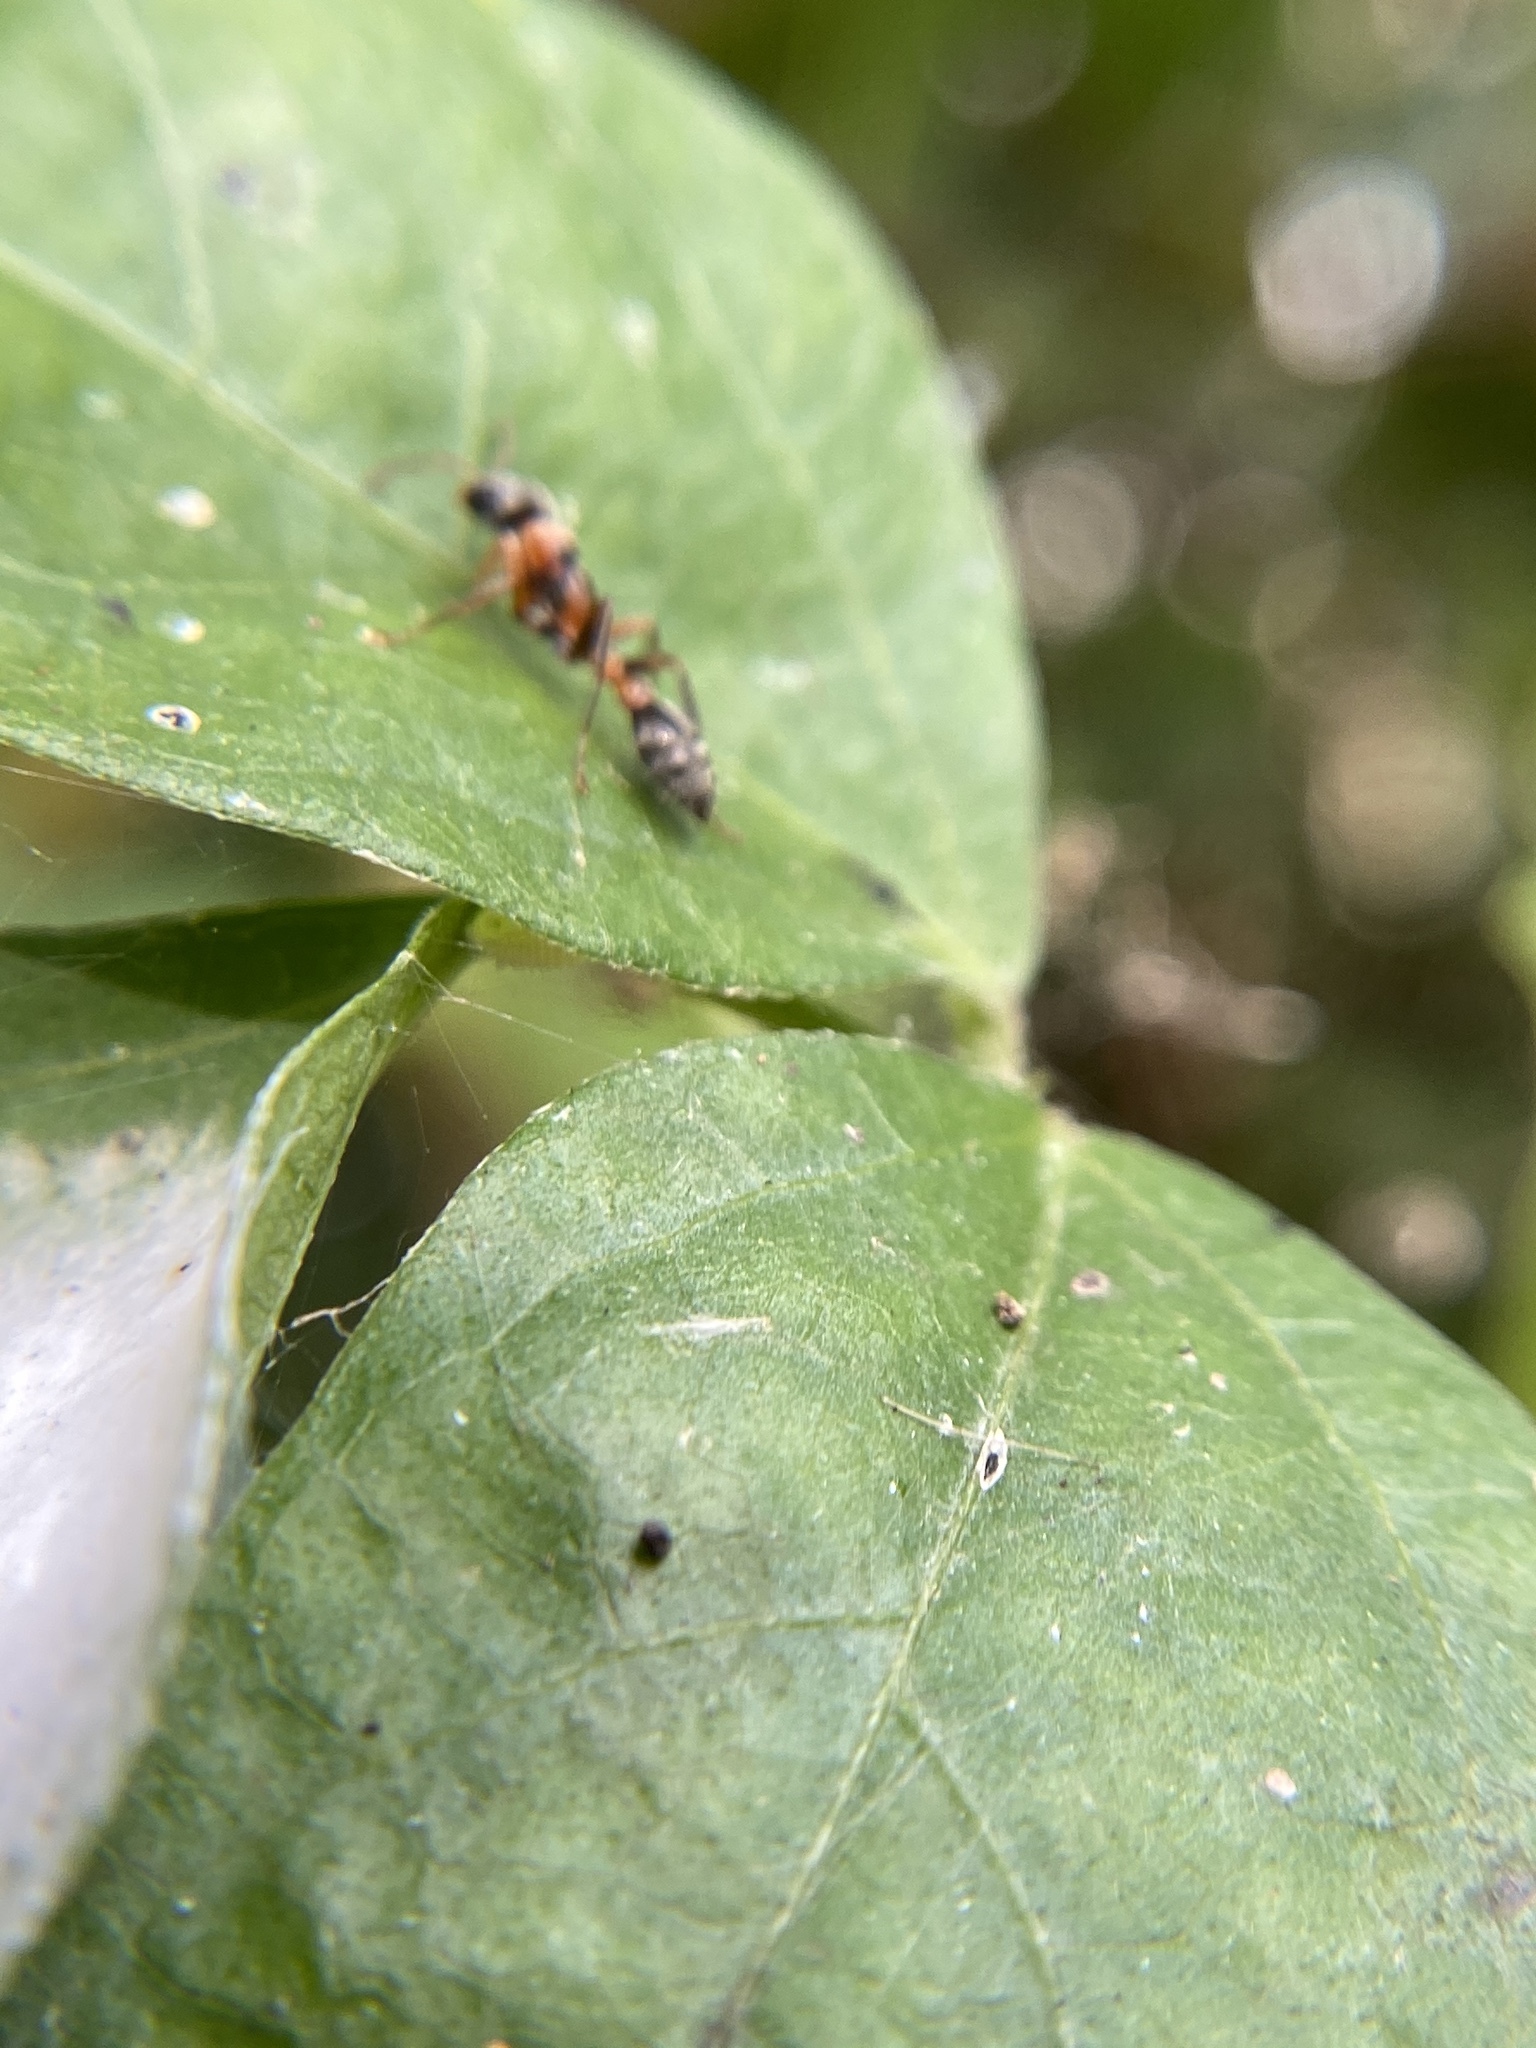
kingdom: Animalia
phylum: Arthropoda
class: Insecta
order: Hymenoptera
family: Formicidae
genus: Pseudomyrmex
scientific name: Pseudomyrmex gracilis
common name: Graceful twig ant
